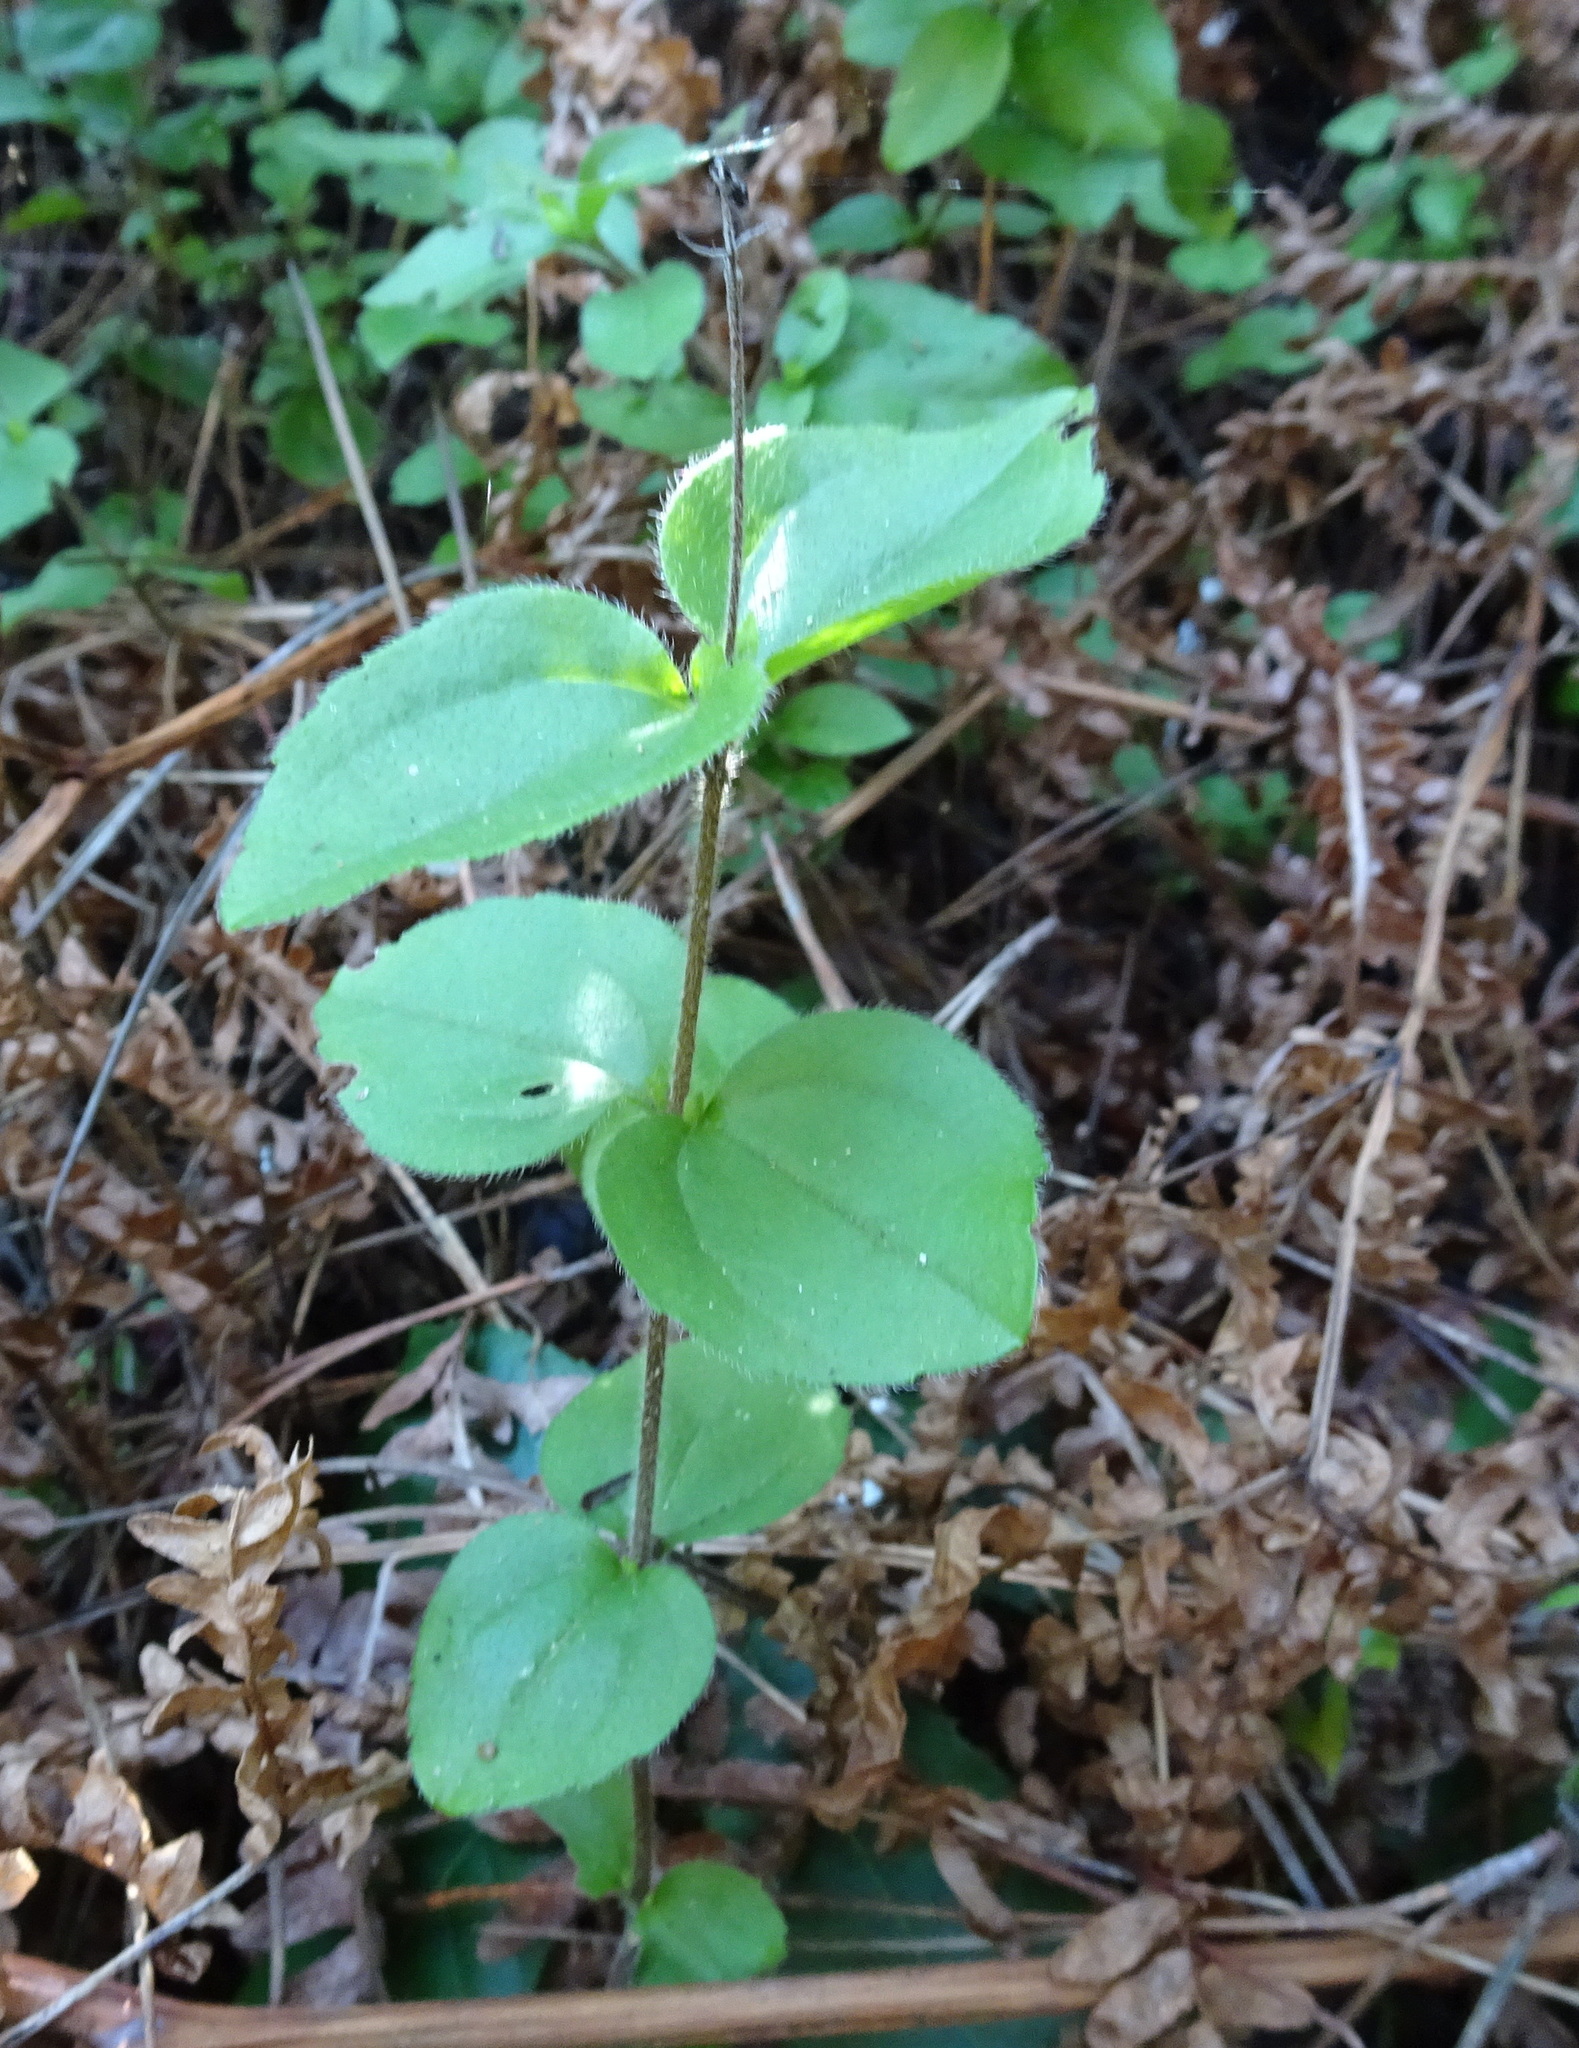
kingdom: Plantae
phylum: Tracheophyta
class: Magnoliopsida
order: Cornales
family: Hydrangeaceae
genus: Whipplea
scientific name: Whipplea modesta
